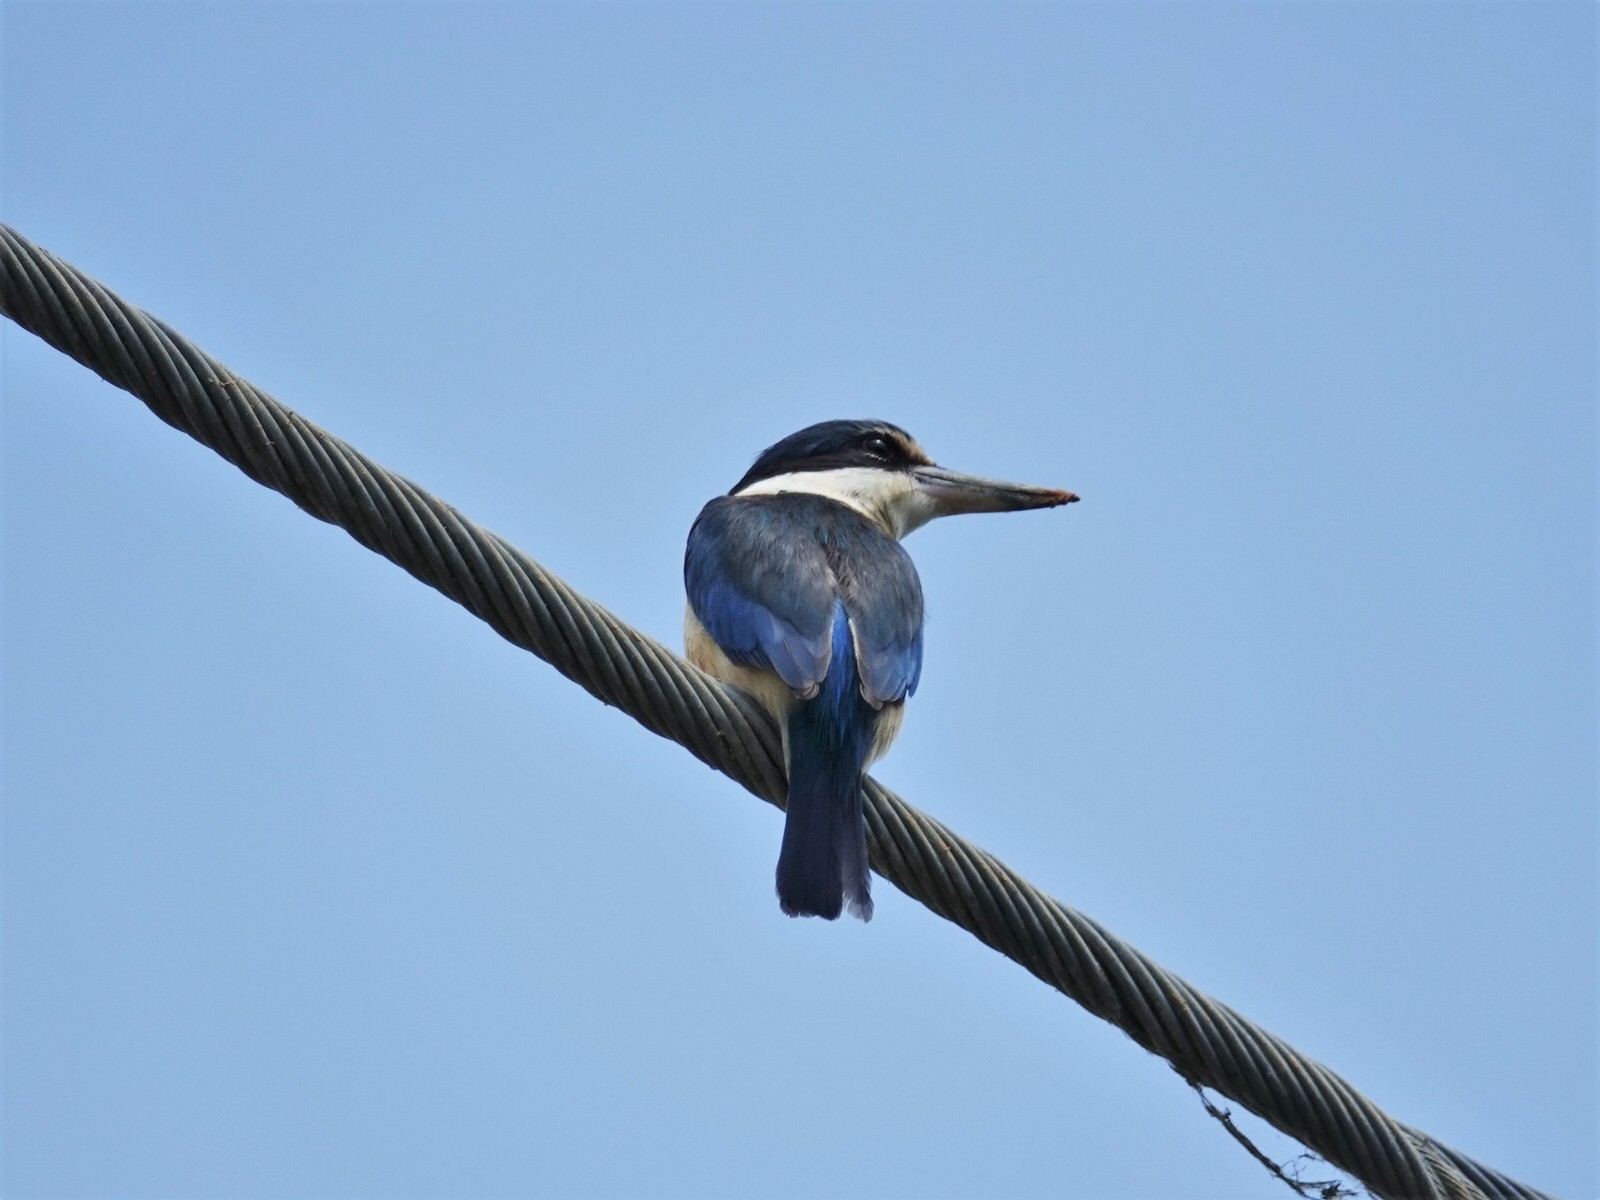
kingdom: Animalia
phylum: Chordata
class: Aves
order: Coraciiformes
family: Alcedinidae
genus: Todiramphus
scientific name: Todiramphus sanctus
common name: Sacred kingfisher
